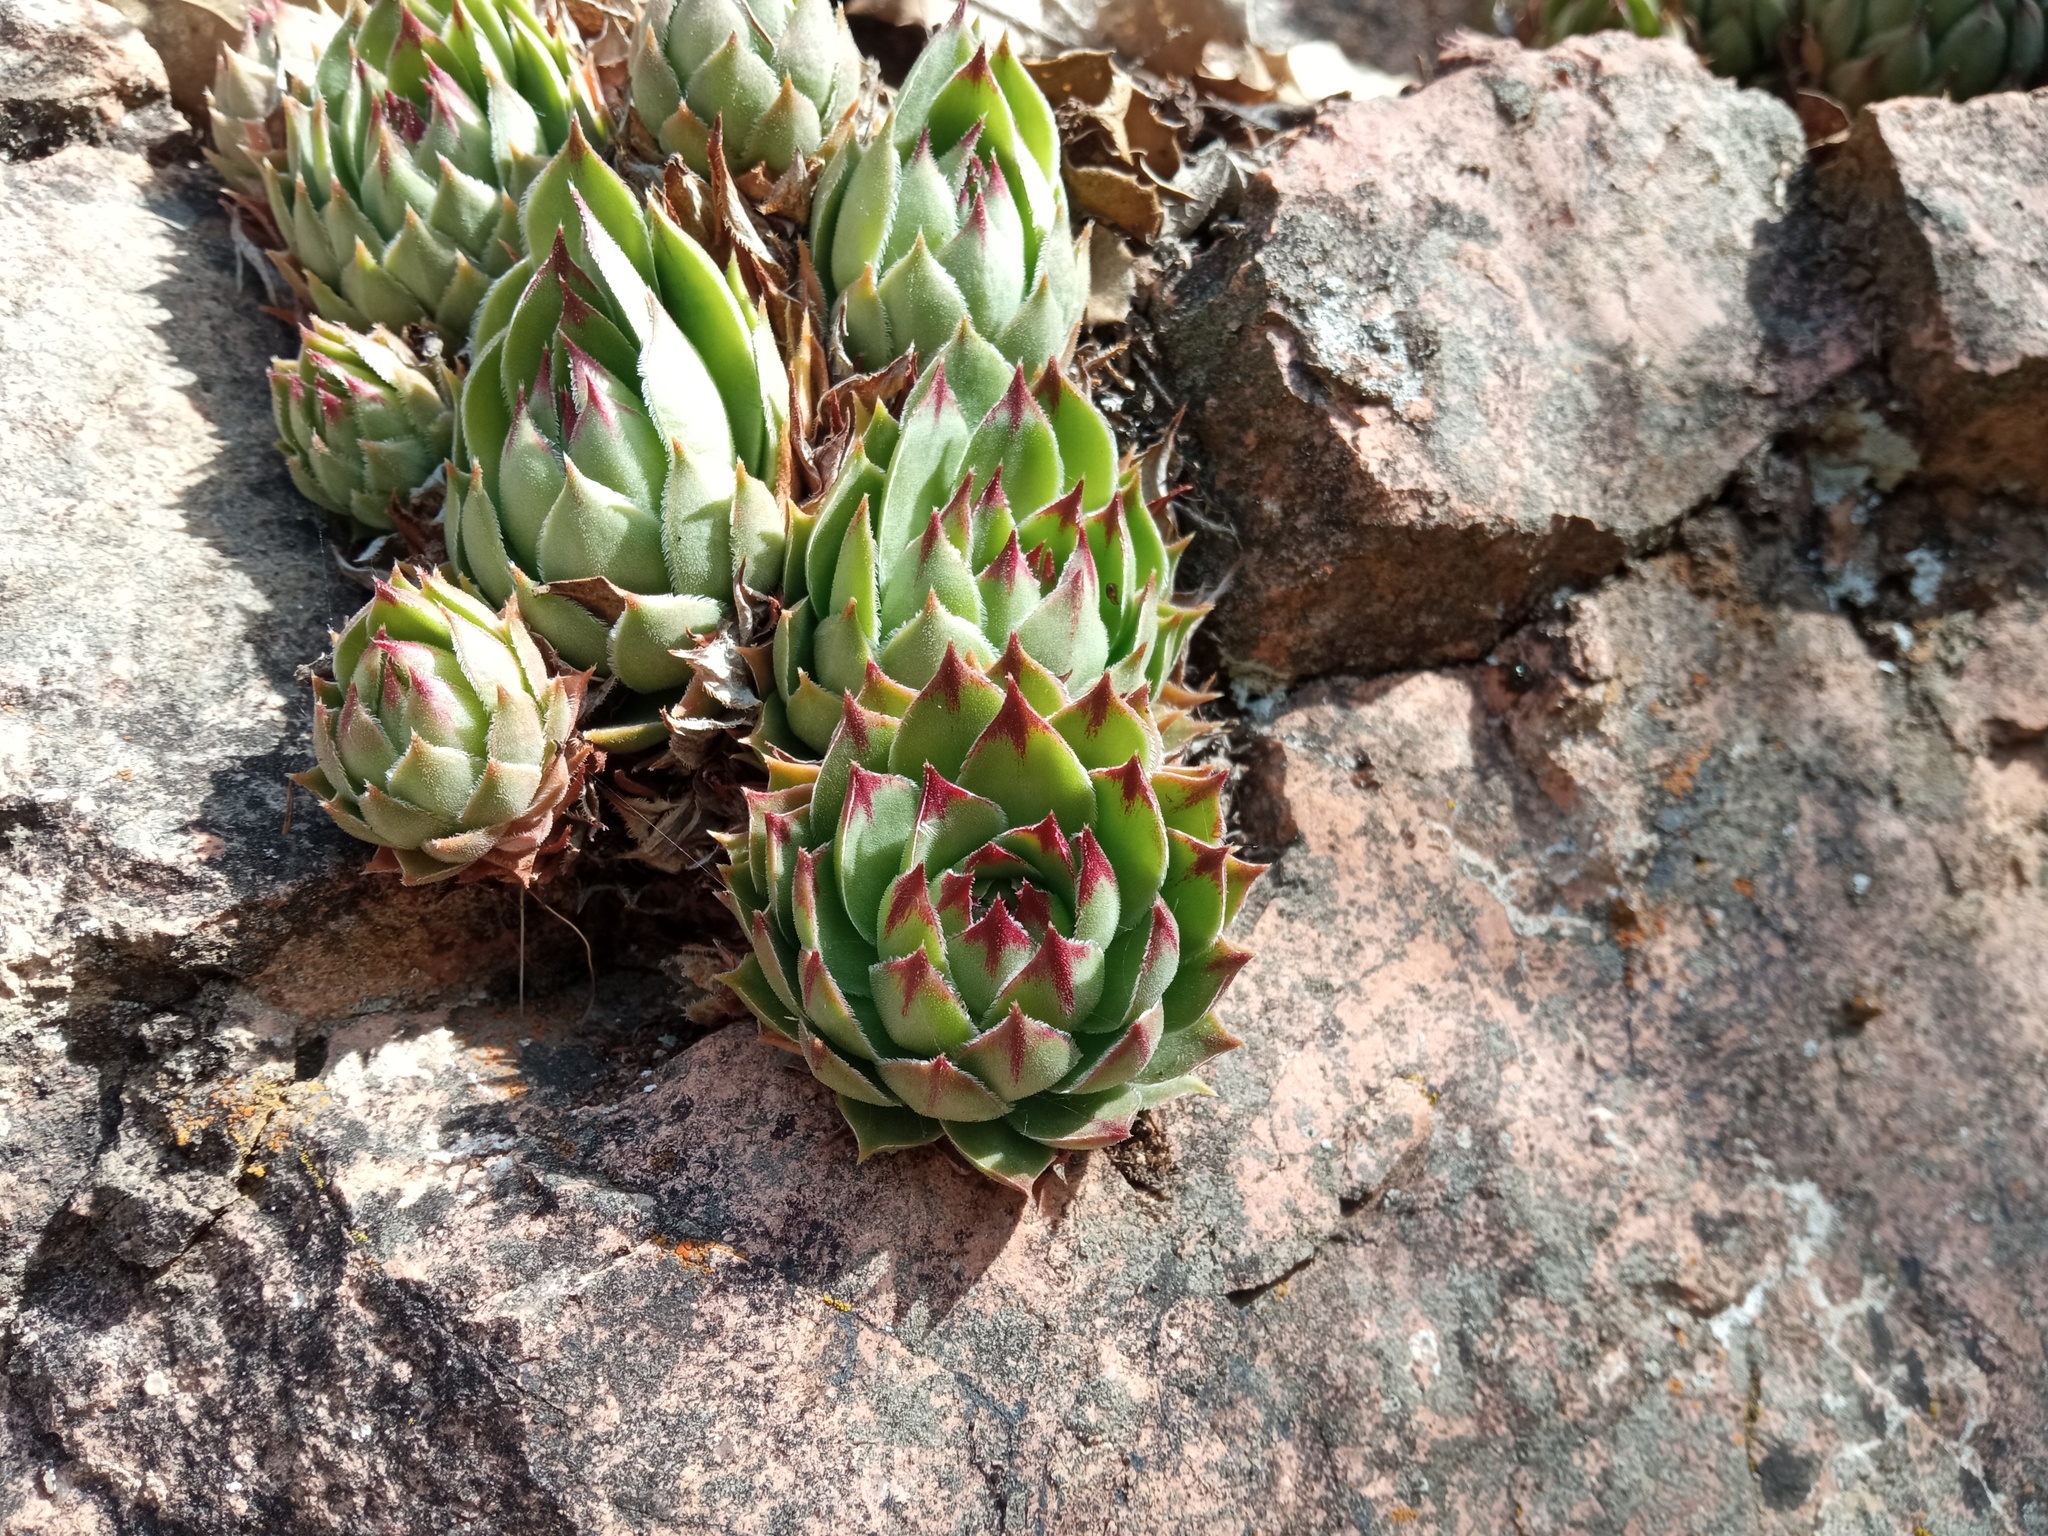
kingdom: Plantae
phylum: Tracheophyta
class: Magnoliopsida
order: Saxifragales
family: Crassulaceae
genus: Sempervivum
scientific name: Sempervivum tectorum
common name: House-leek
